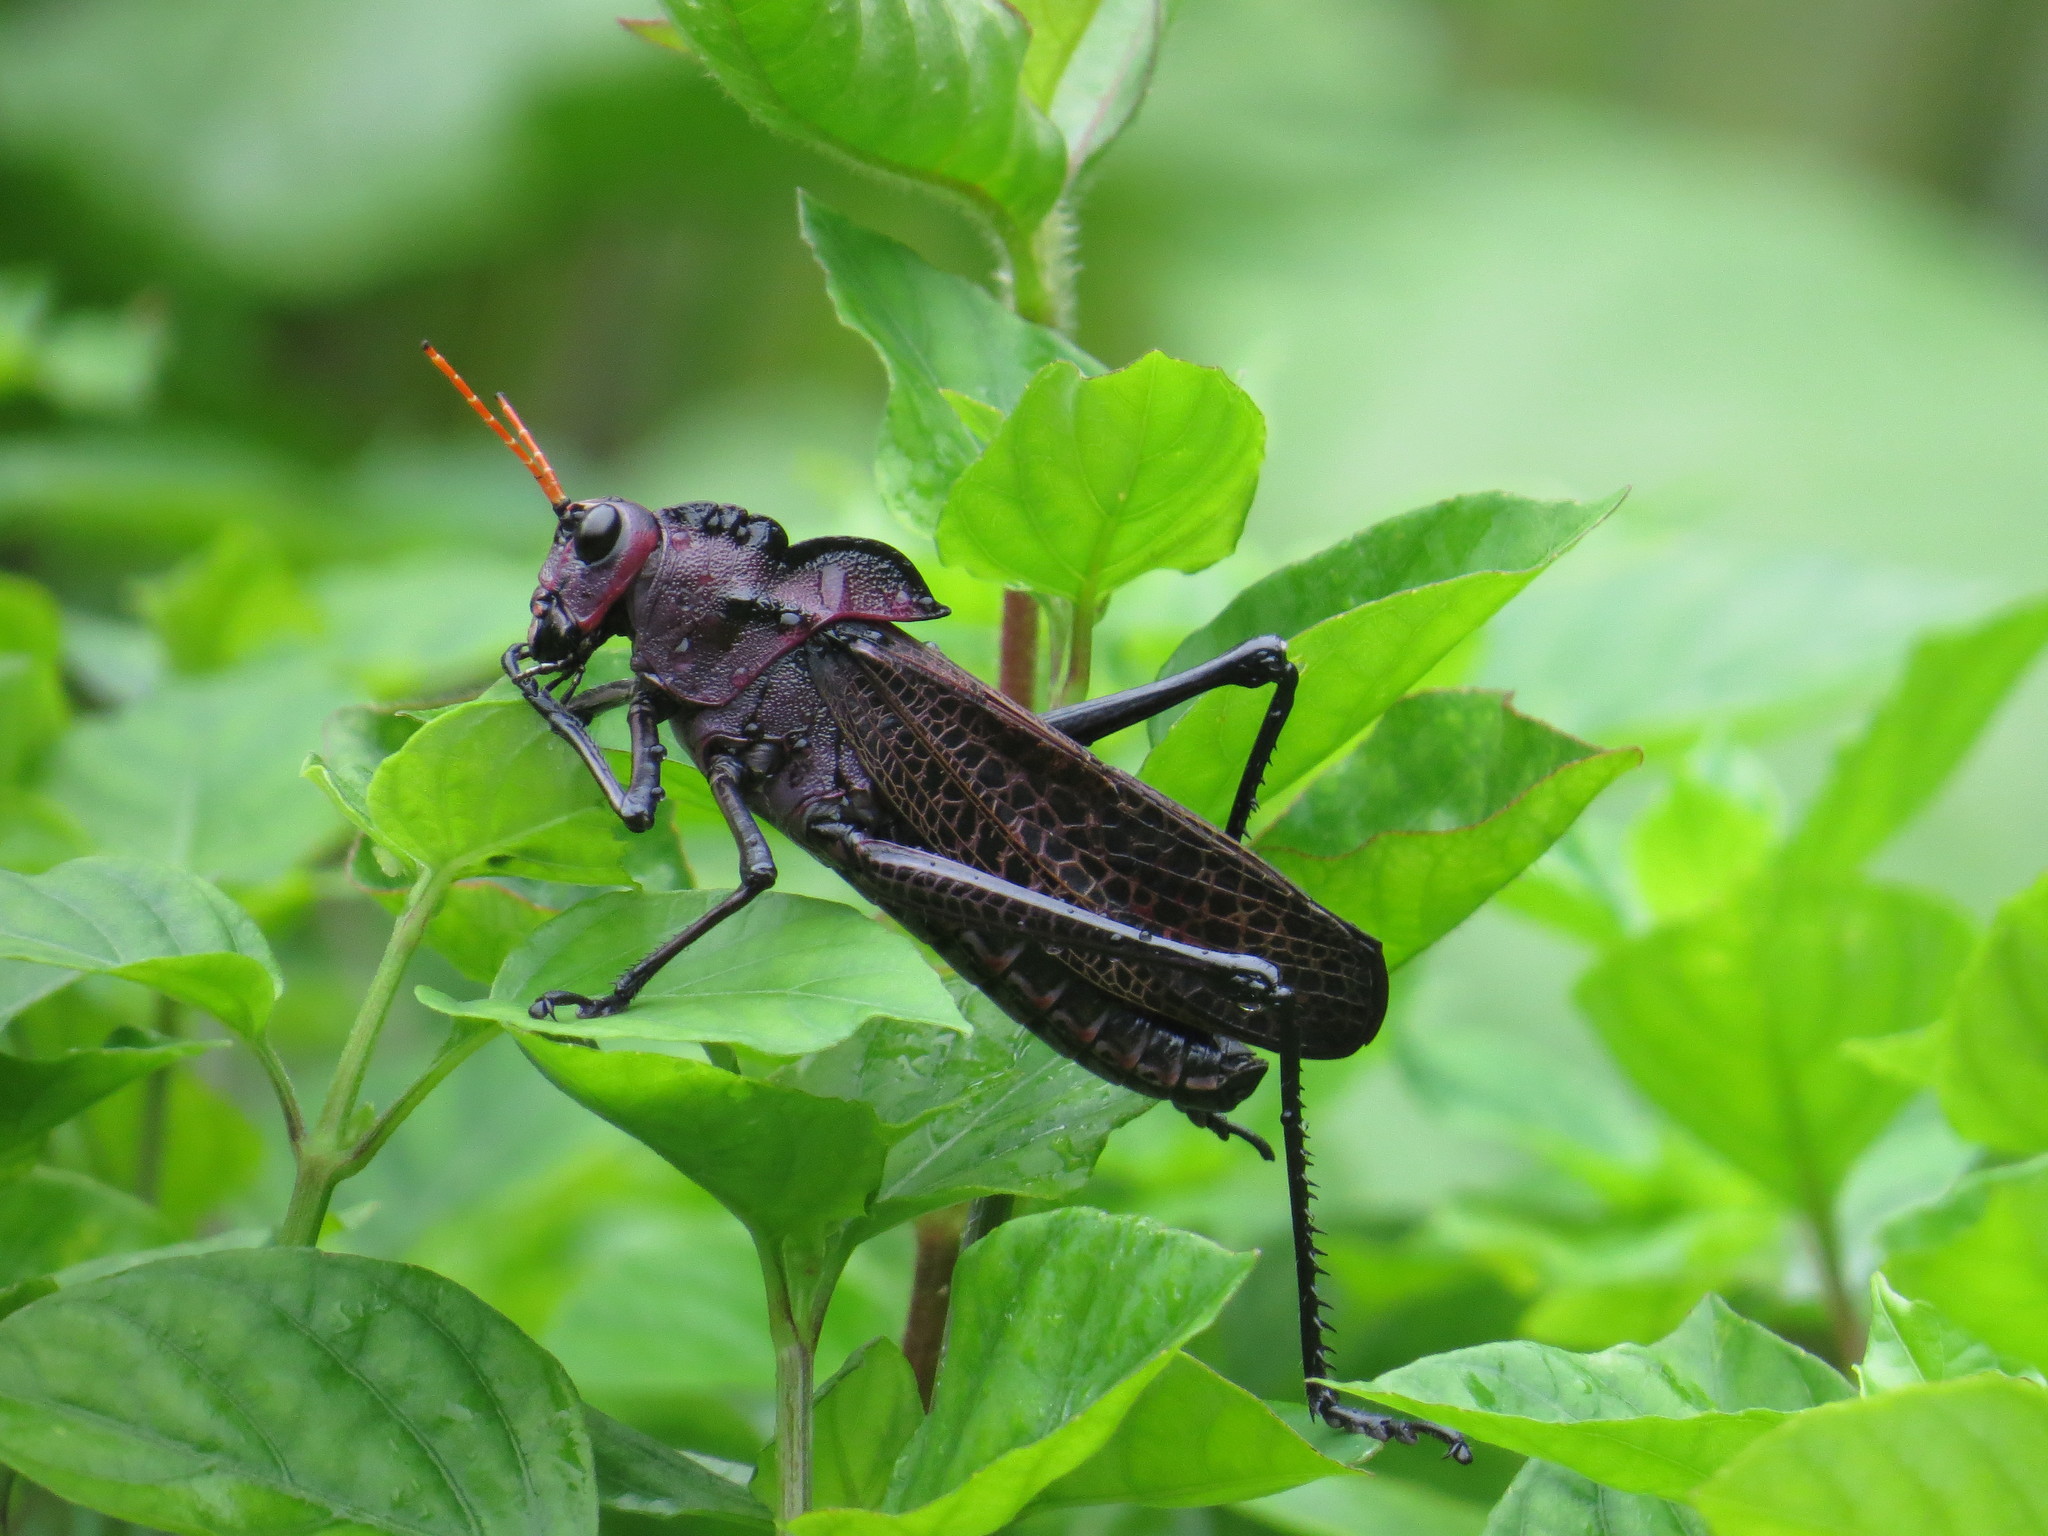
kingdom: Animalia
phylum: Arthropoda
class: Insecta
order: Orthoptera
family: Romaleidae
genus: Romalea
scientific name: Romalea
